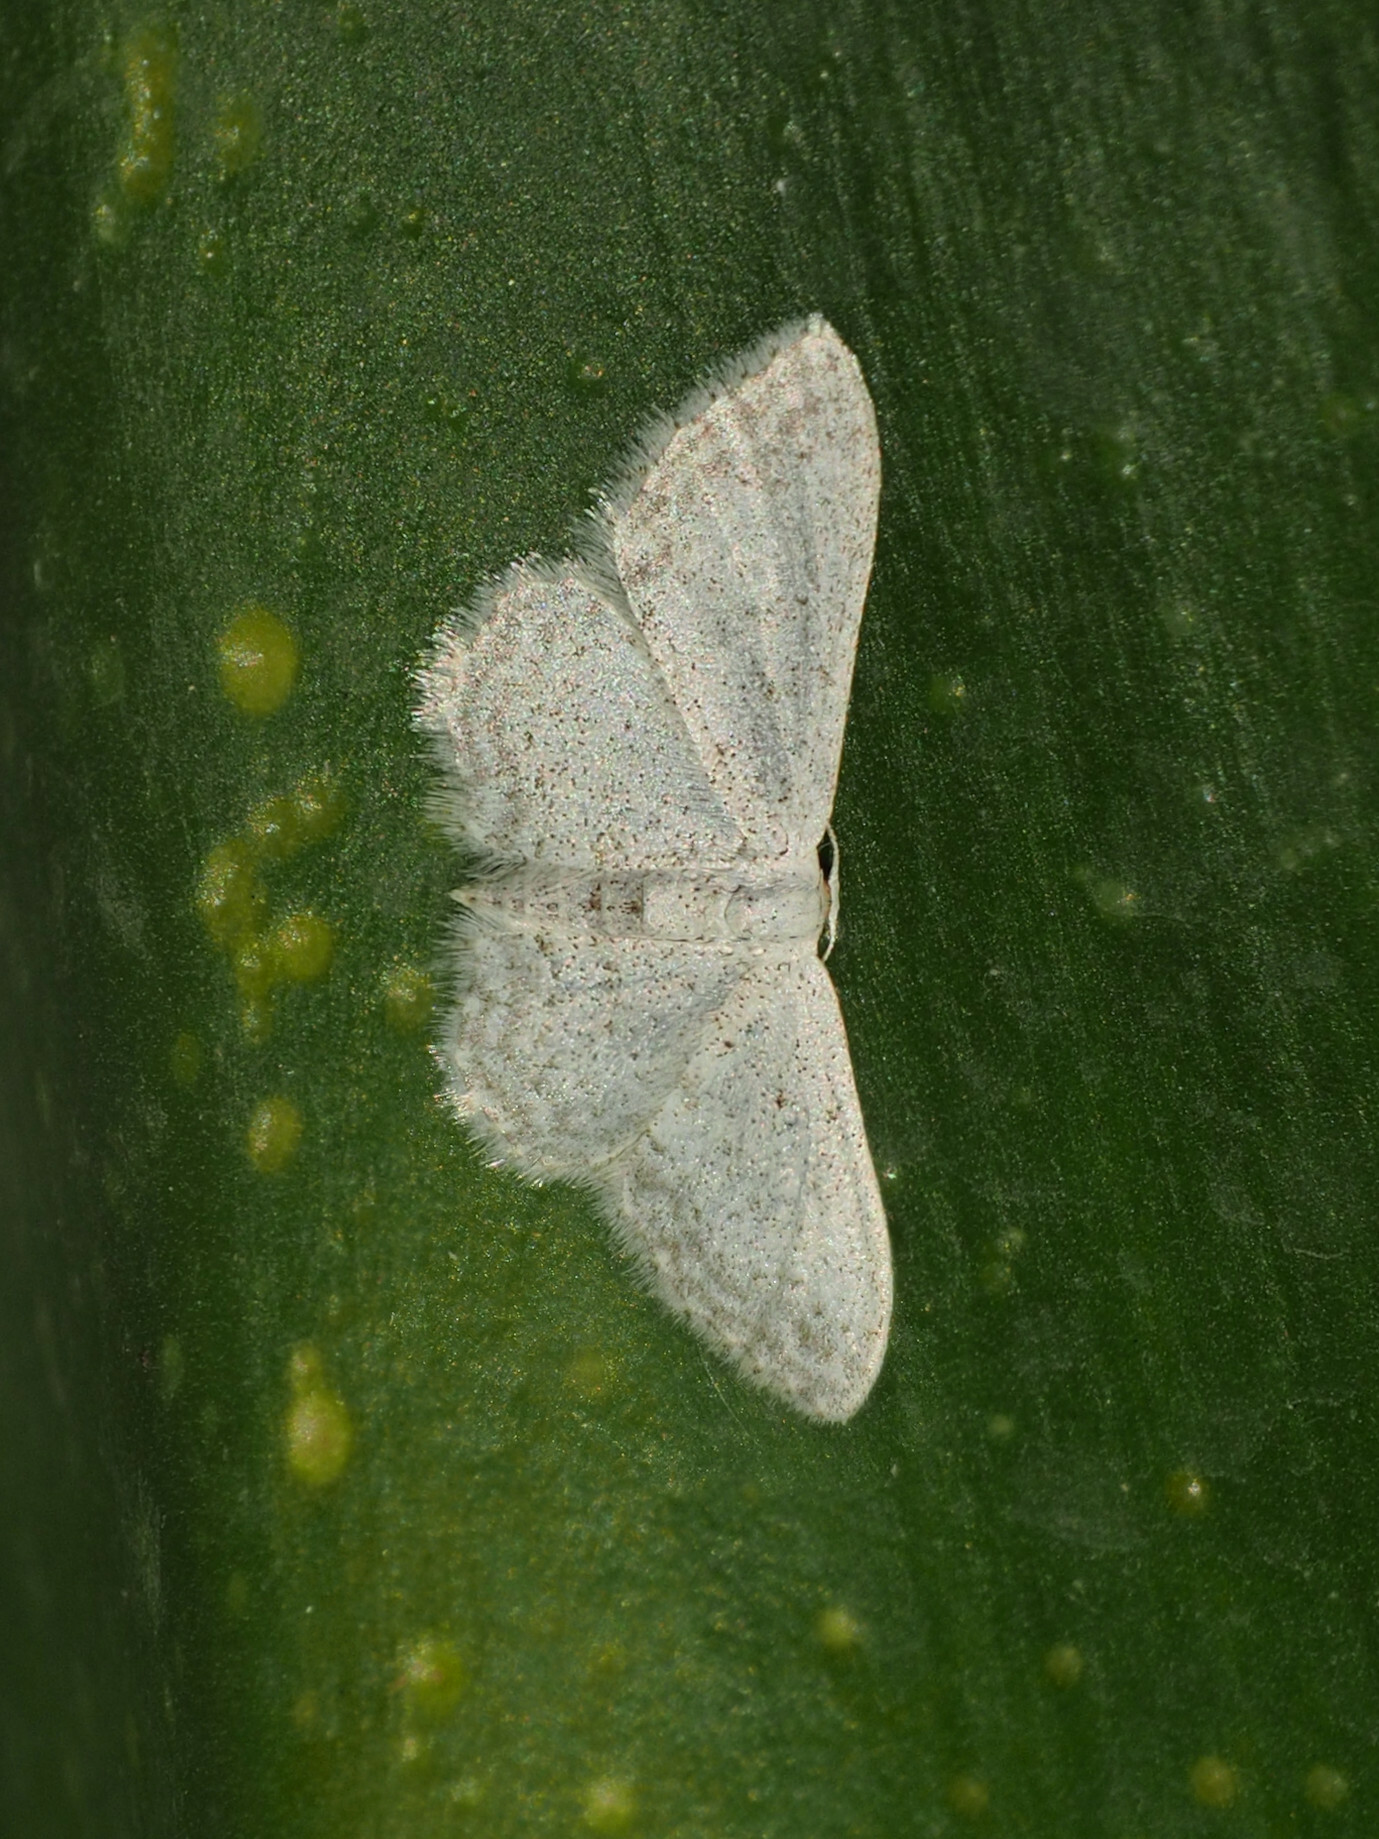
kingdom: Animalia
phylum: Arthropoda
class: Insecta
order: Lepidoptera
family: Geometridae
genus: Idaea
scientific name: Idaea seriata
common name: Small dusty wave
